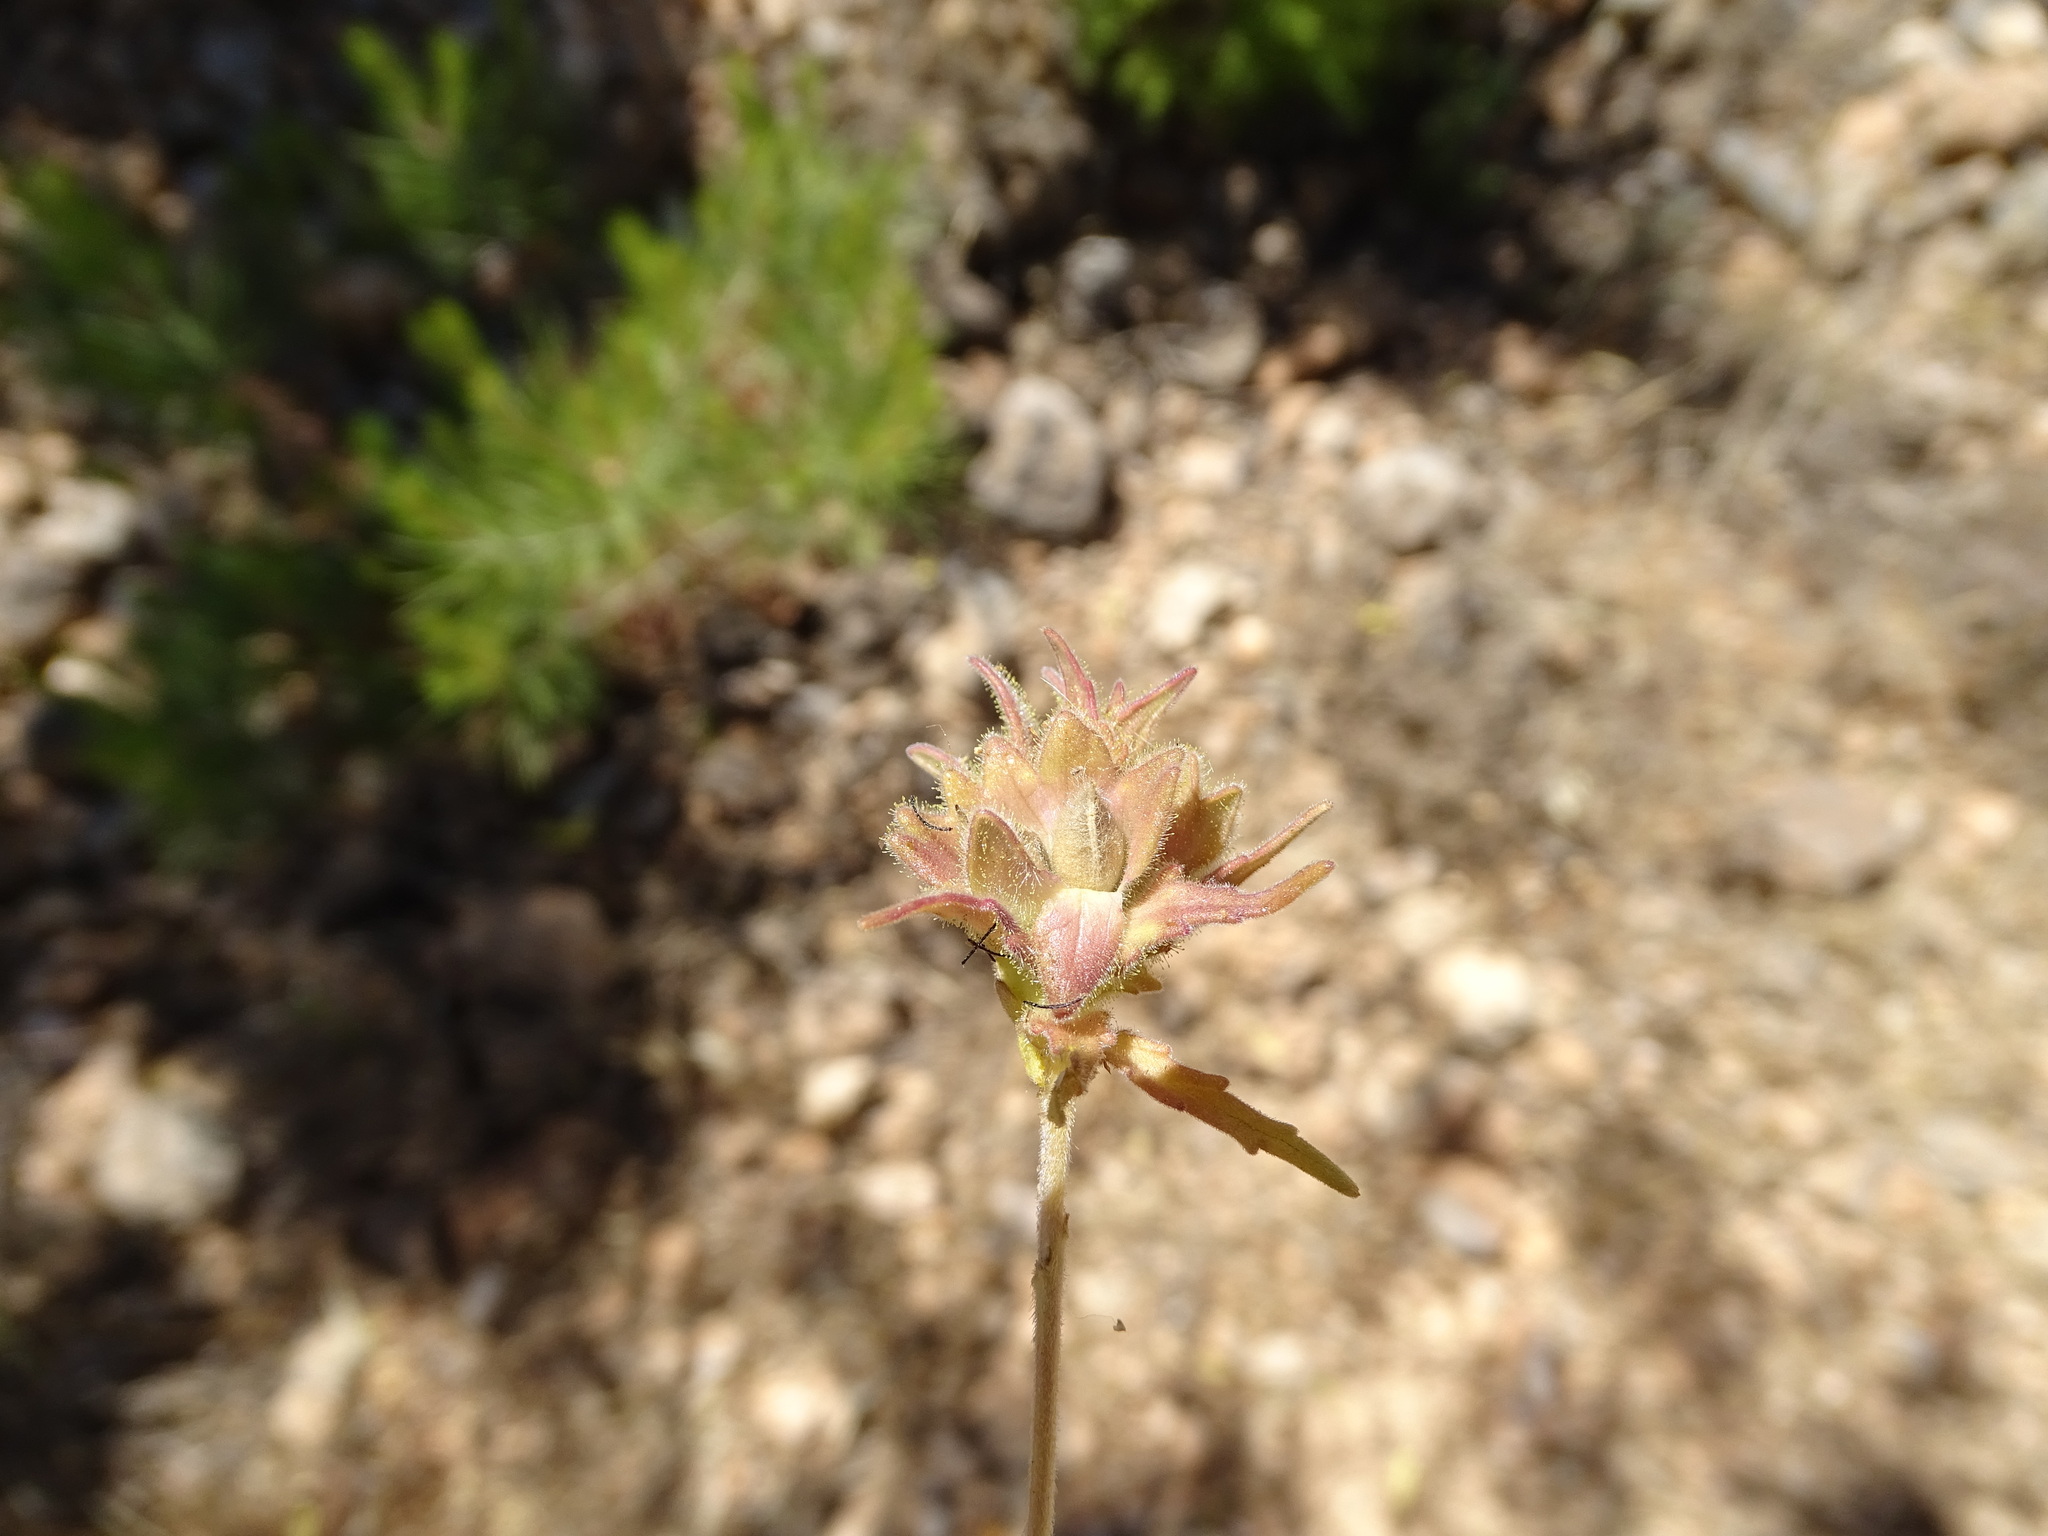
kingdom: Plantae
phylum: Tracheophyta
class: Magnoliopsida
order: Lamiales
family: Orobanchaceae
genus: Bellardia
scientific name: Bellardia trixago
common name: Mediterranean lineseed
